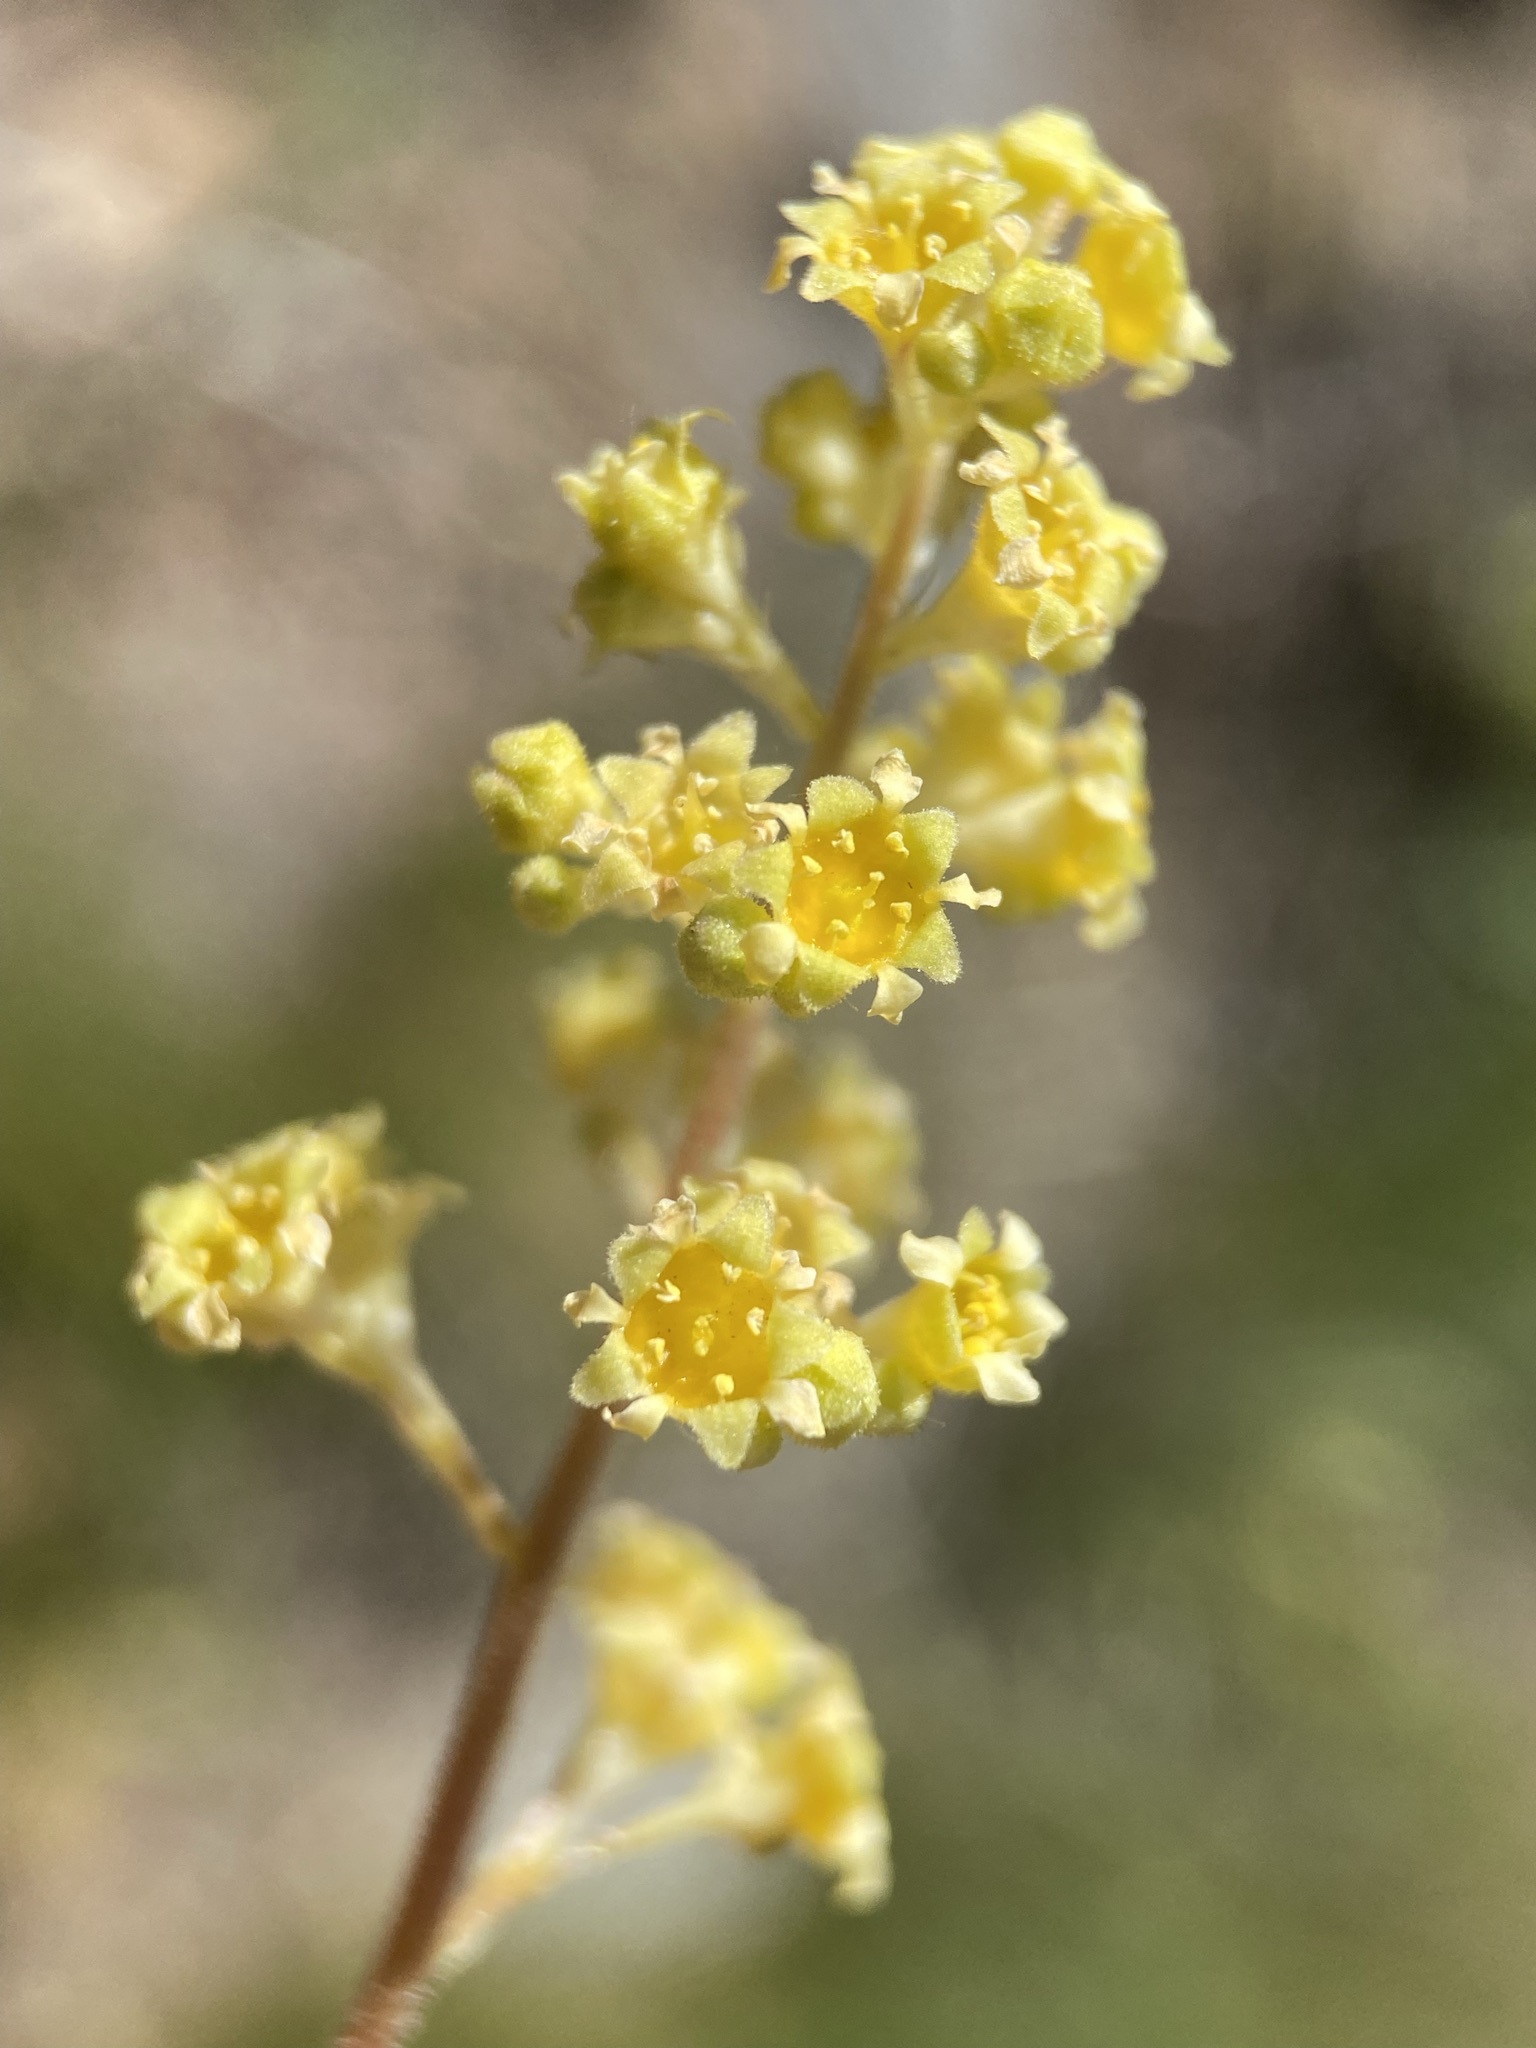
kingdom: Plantae
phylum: Tracheophyta
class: Magnoliopsida
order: Saxifragales
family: Saxifragaceae
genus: Heuchera
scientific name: Heuchera parvifolia
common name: Common alumroot
